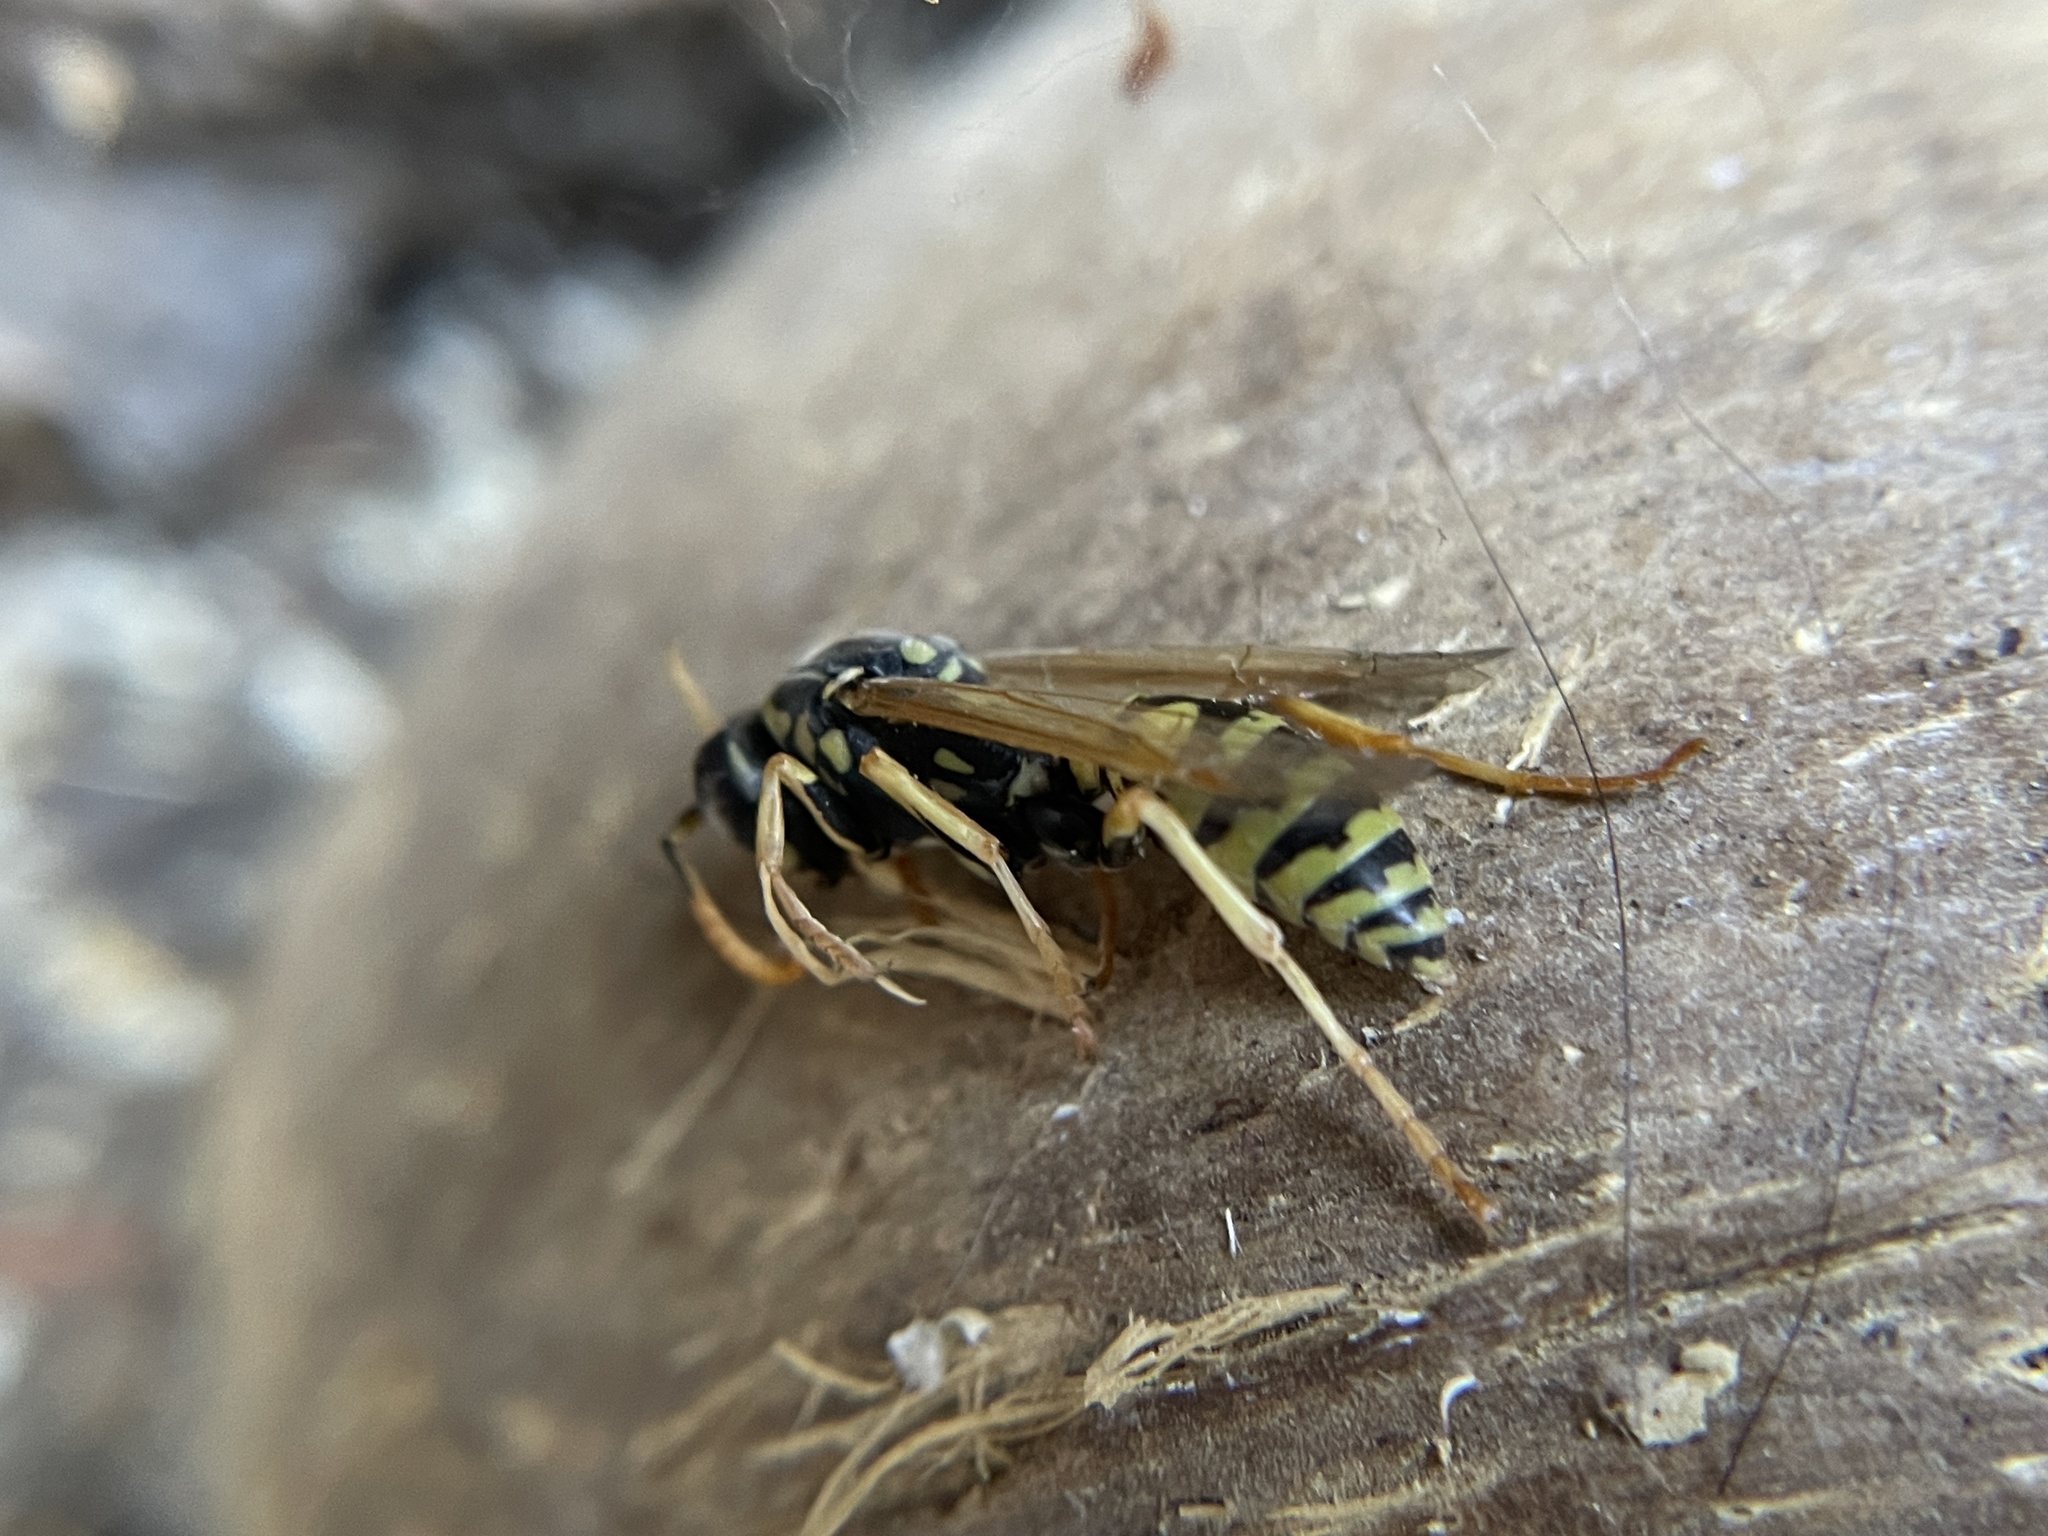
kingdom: Animalia
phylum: Arthropoda
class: Insecta
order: Hymenoptera
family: Eumenidae
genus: Polistes
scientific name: Polistes dominula
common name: Paper wasp
